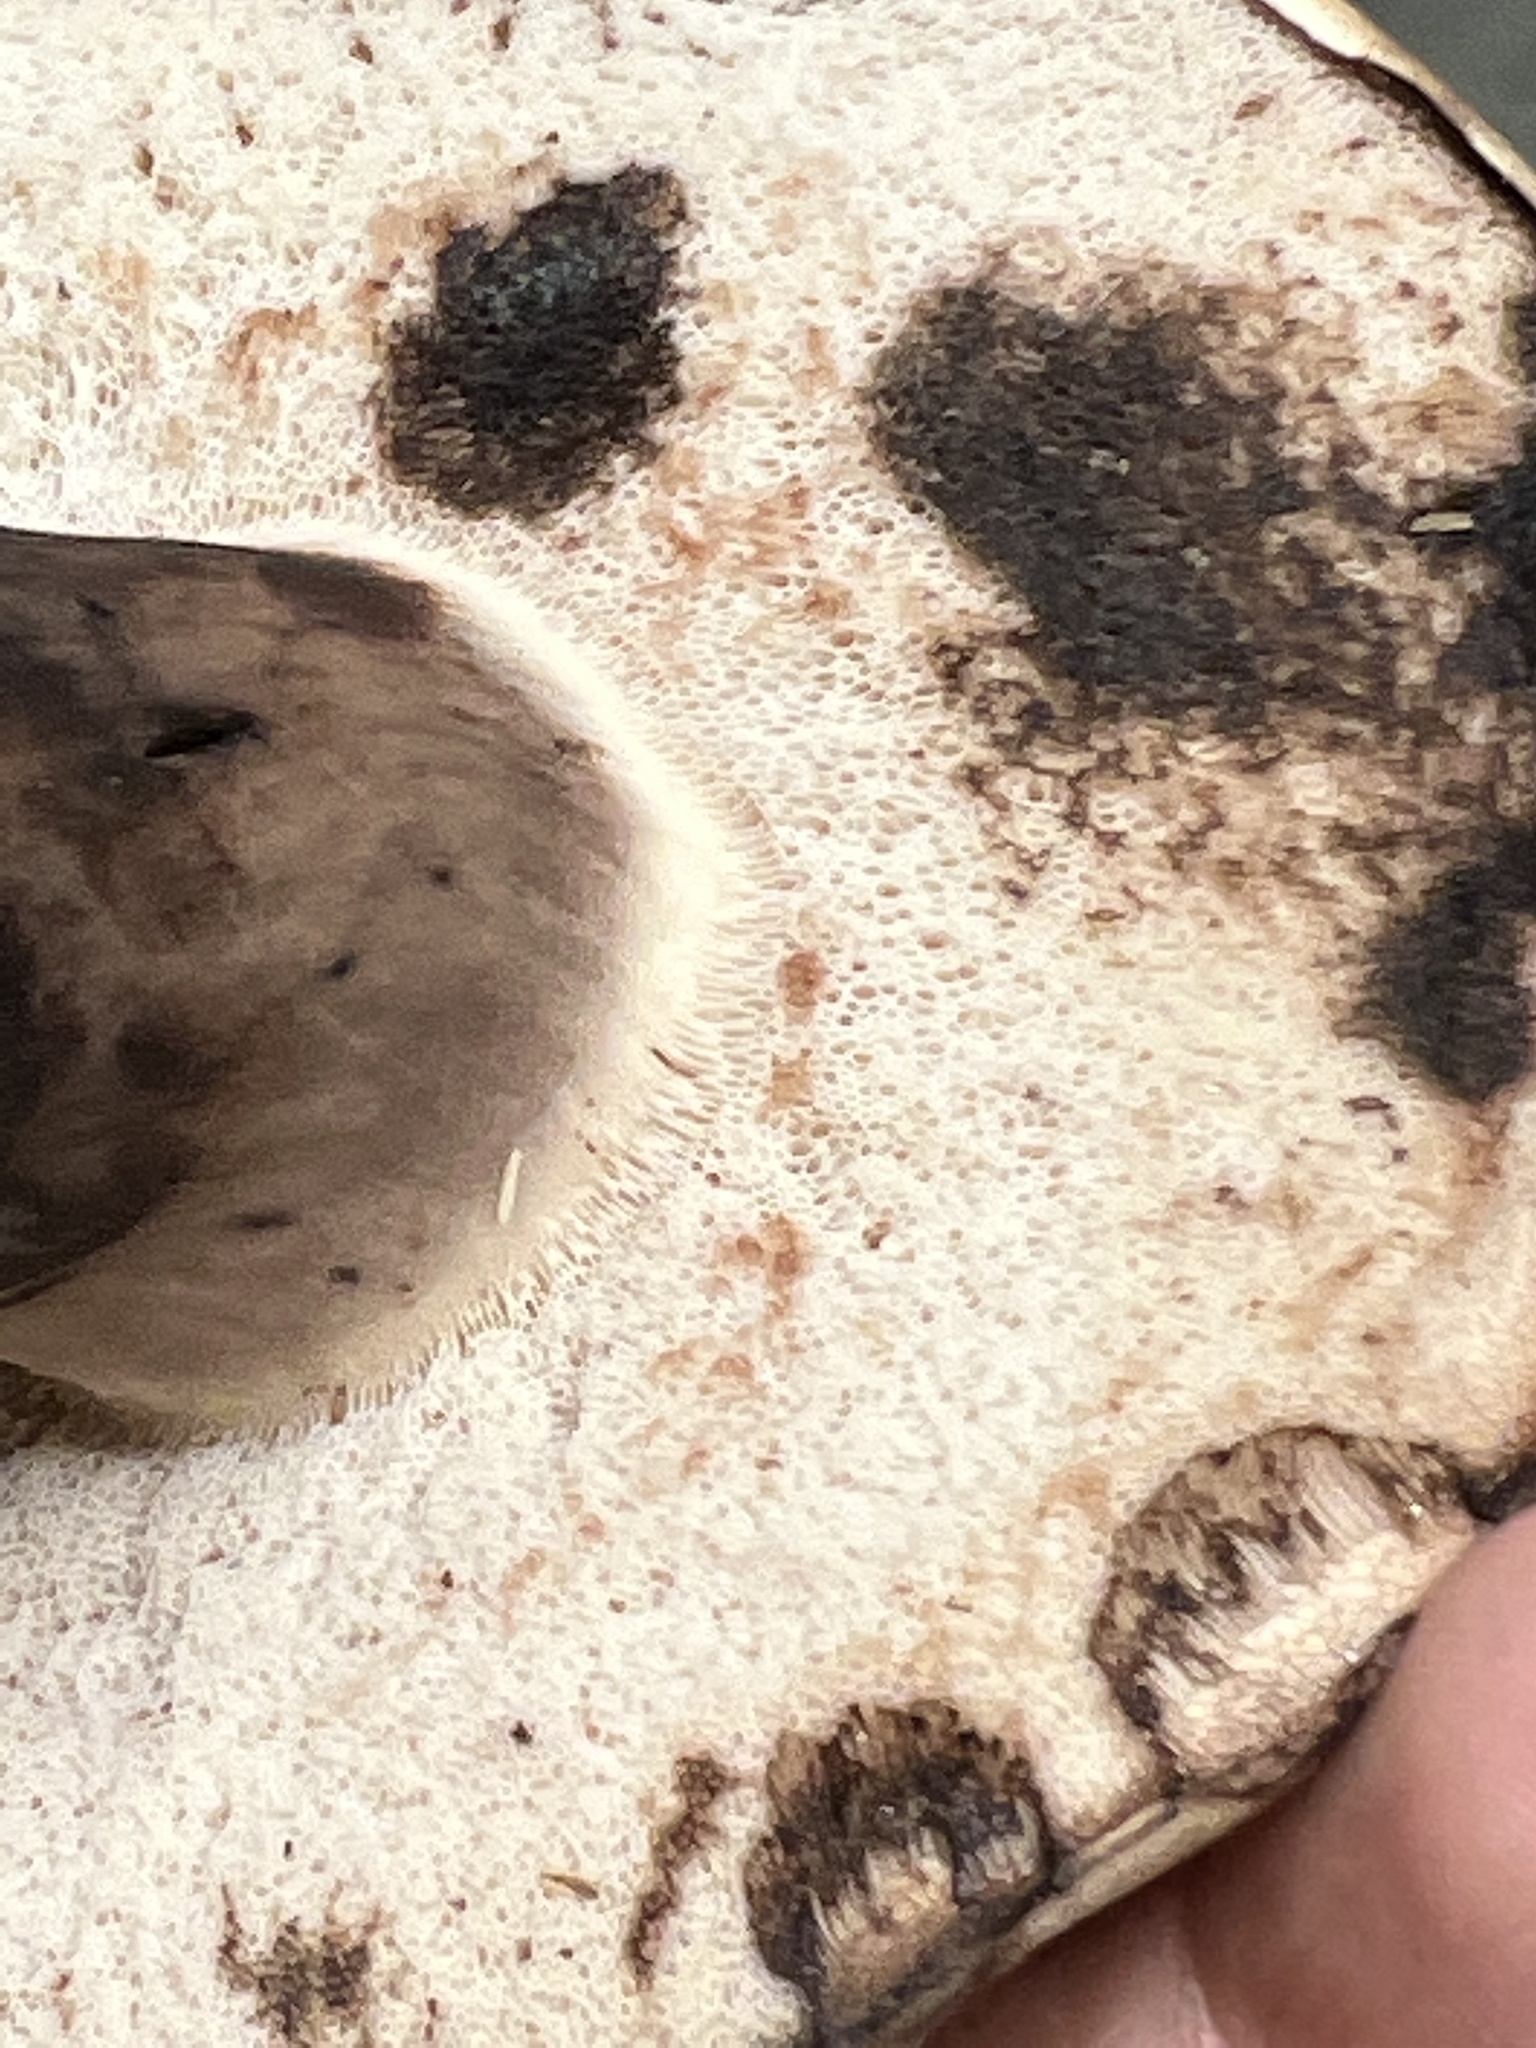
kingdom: Fungi
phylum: Basidiomycota
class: Agaricomycetes
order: Boletales
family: Boletaceae
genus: Tylopilus
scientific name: Tylopilus atronicotianus
